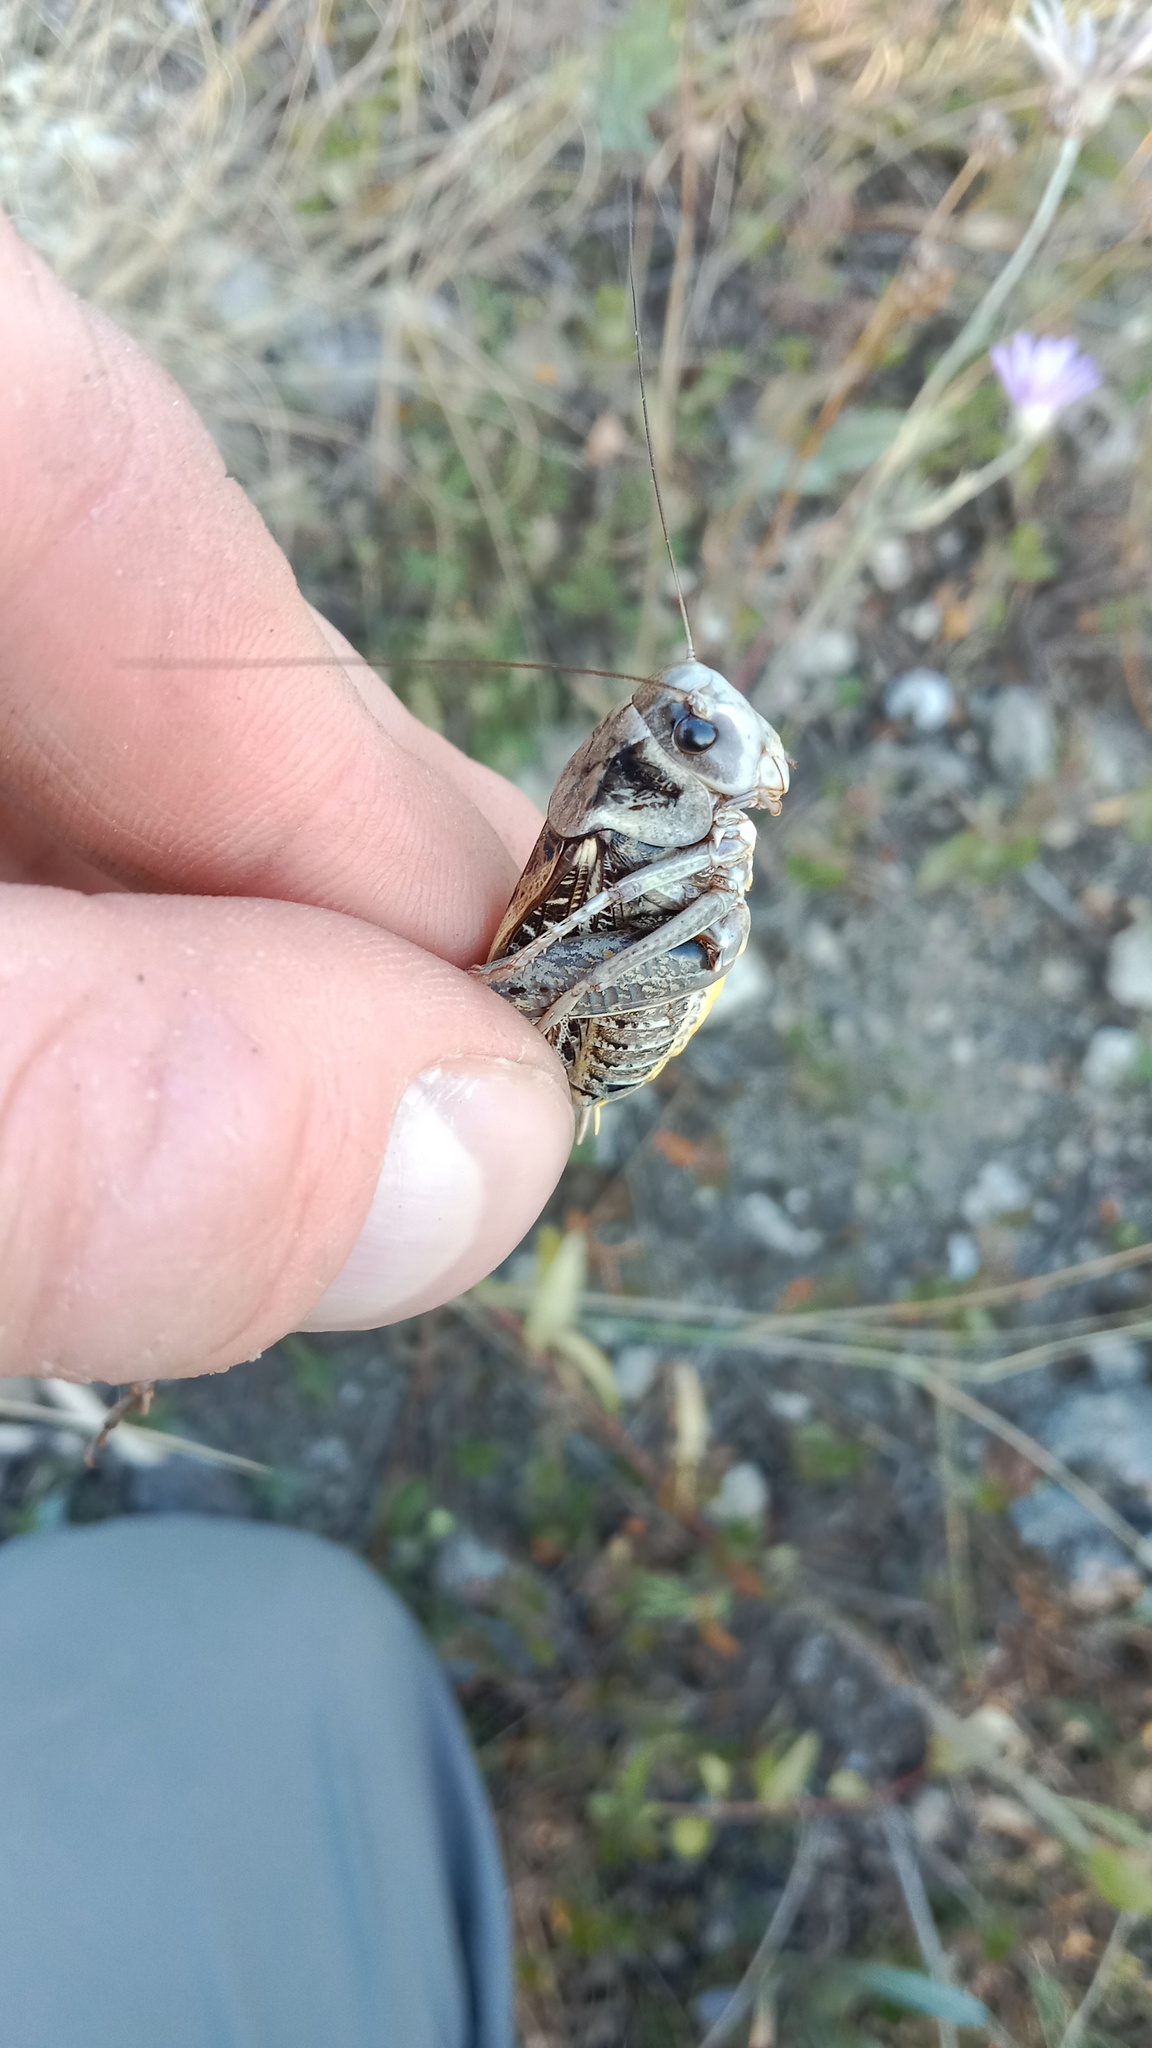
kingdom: Animalia
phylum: Arthropoda
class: Insecta
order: Orthoptera
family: Tettigoniidae
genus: Decticus
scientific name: Decticus verrucivorus
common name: Wart-biter
